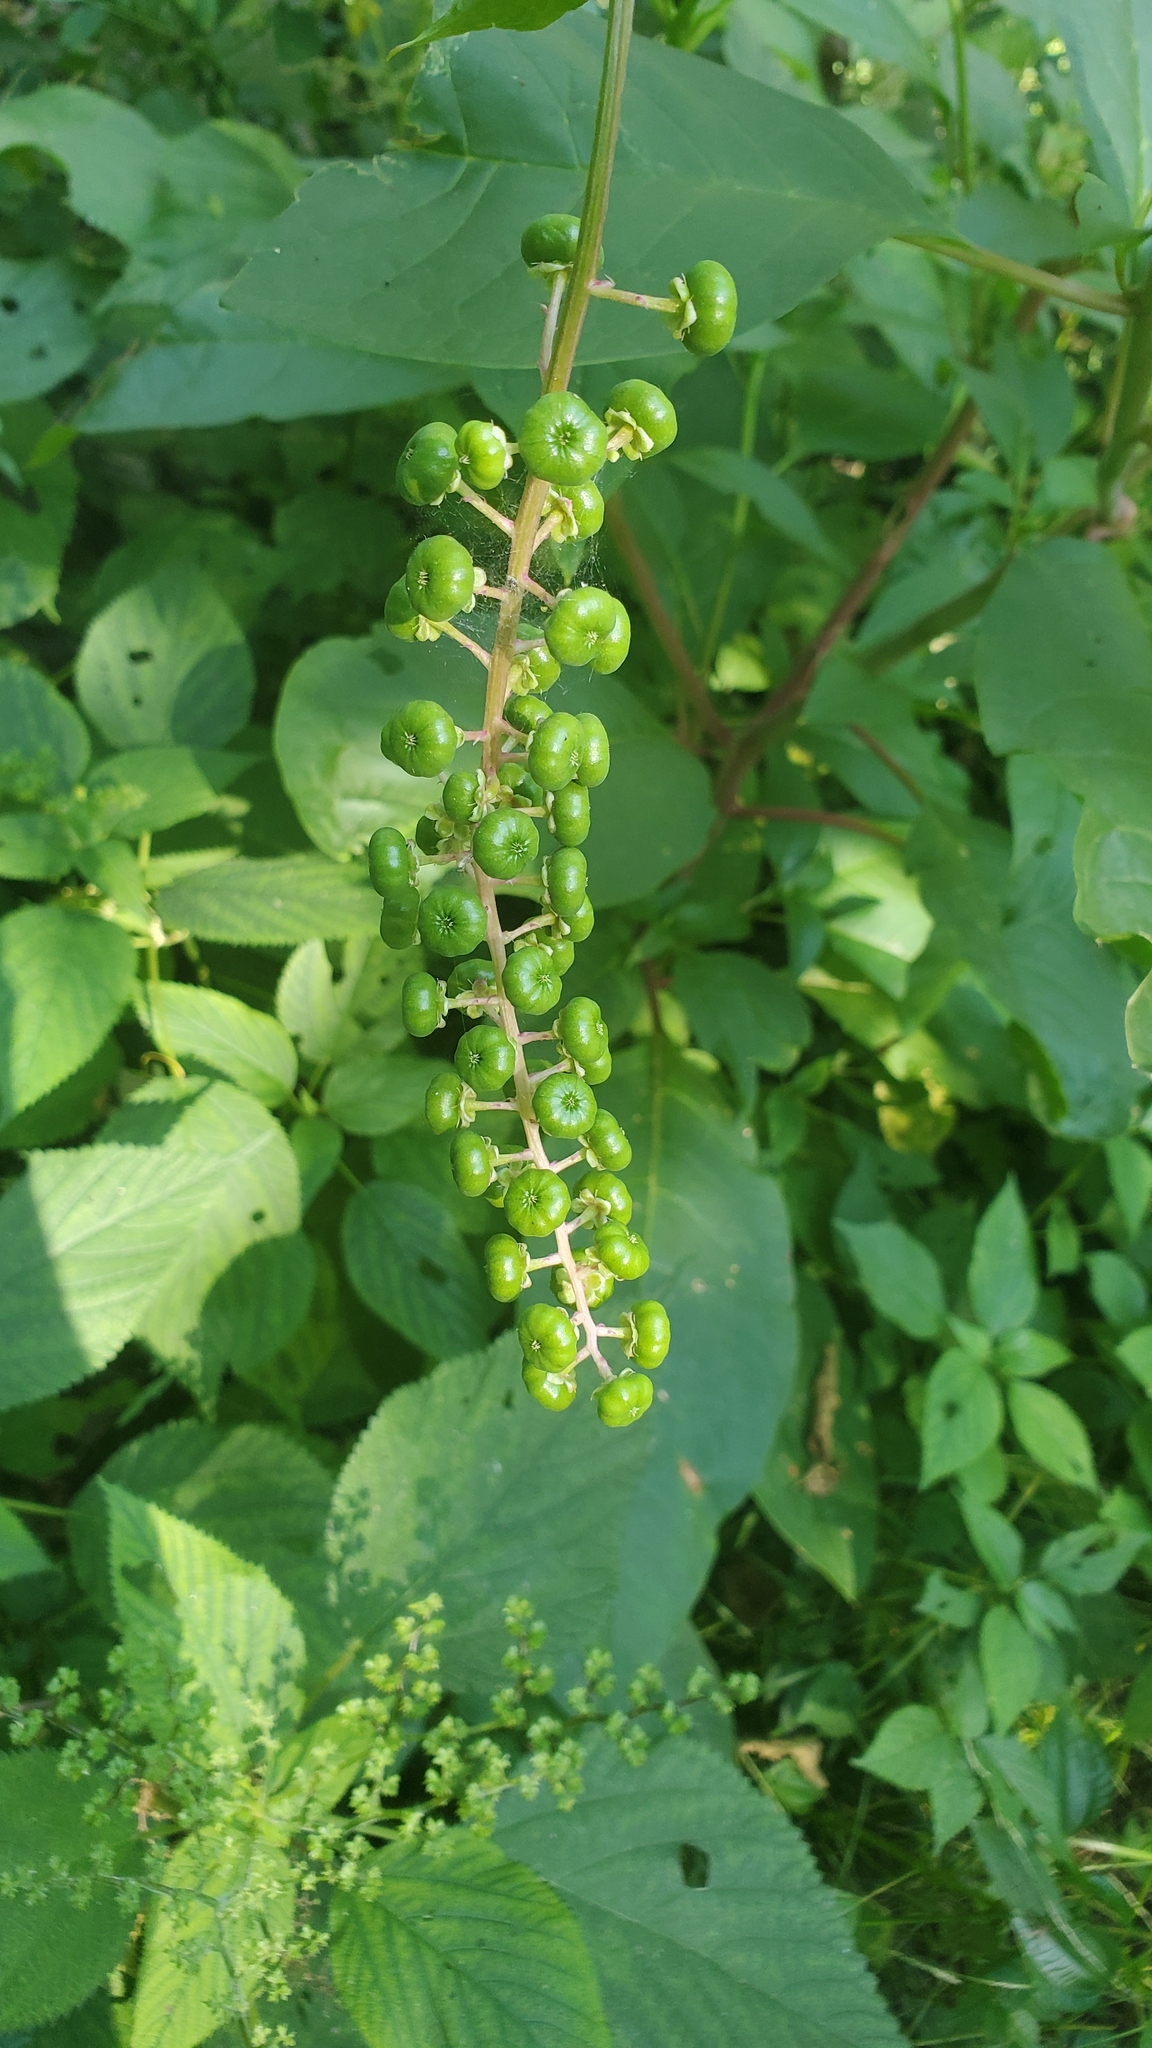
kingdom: Plantae
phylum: Tracheophyta
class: Magnoliopsida
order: Caryophyllales
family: Phytolaccaceae
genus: Phytolacca
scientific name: Phytolacca americana
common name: American pokeweed
